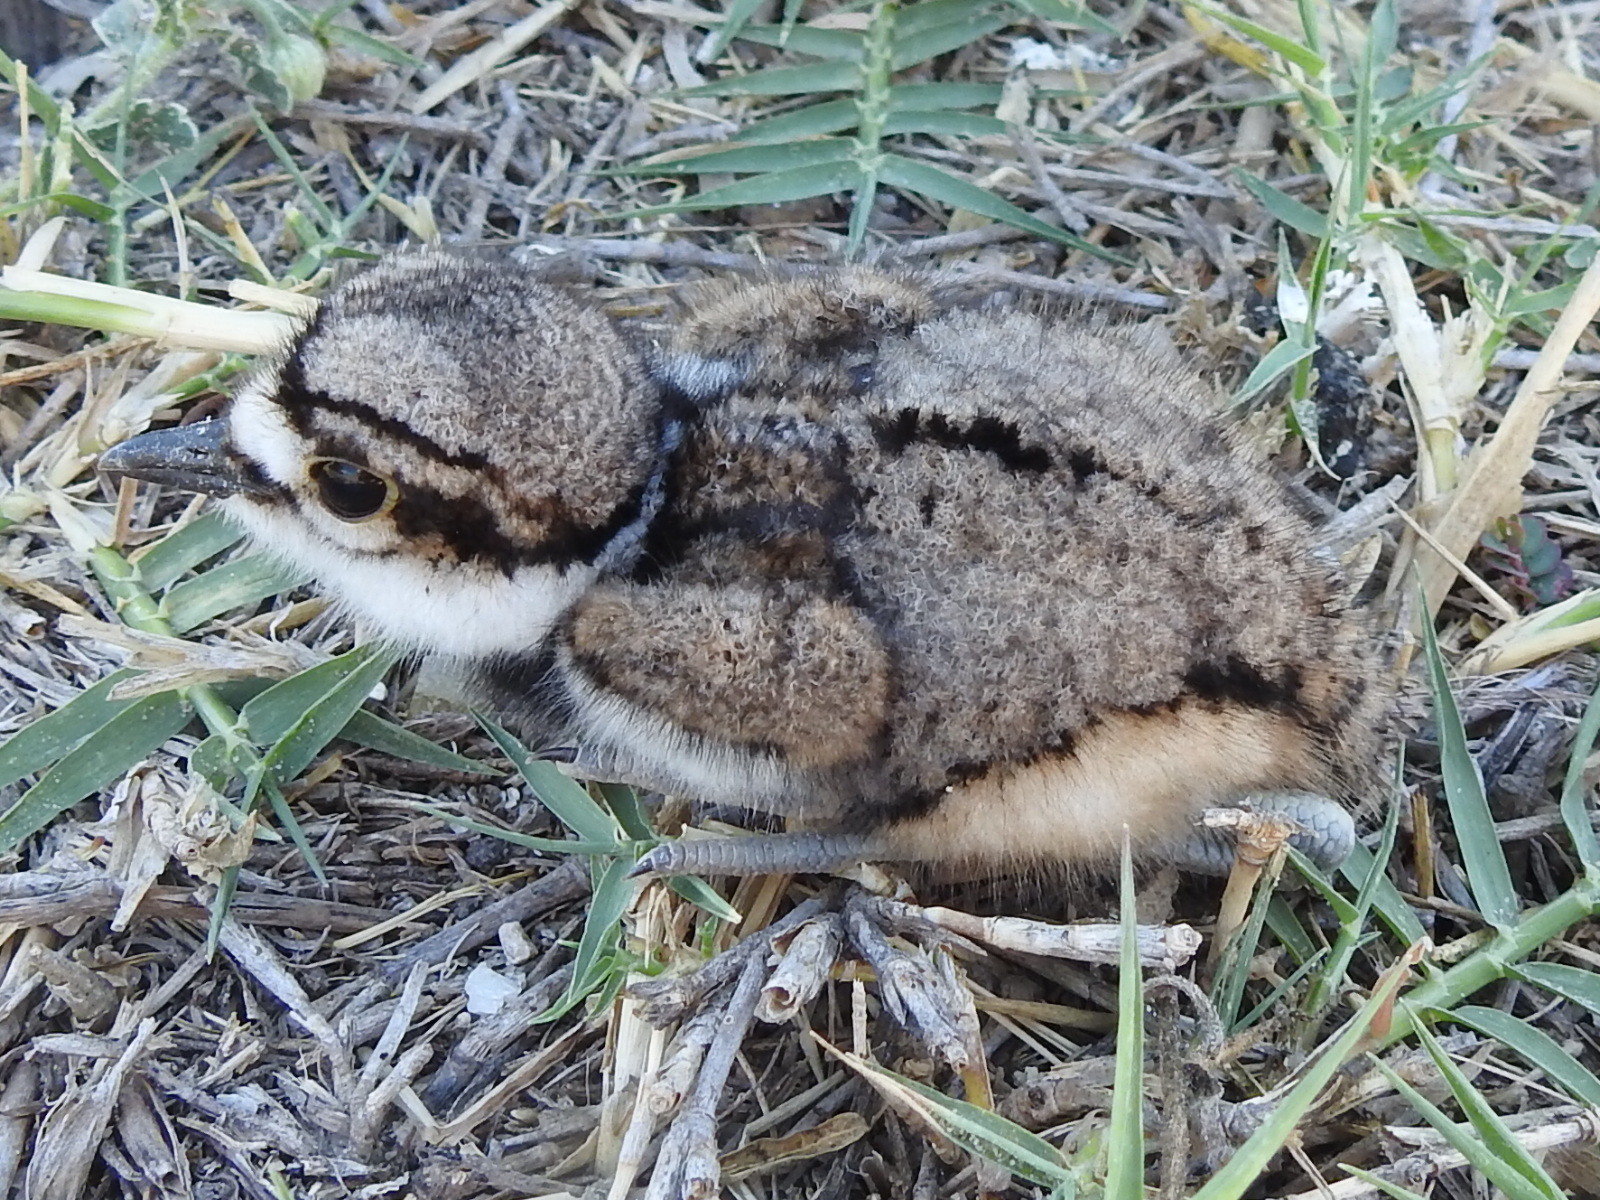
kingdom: Animalia
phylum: Chordata
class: Aves
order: Charadriiformes
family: Charadriidae
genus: Charadrius
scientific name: Charadrius vociferus
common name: Killdeer
